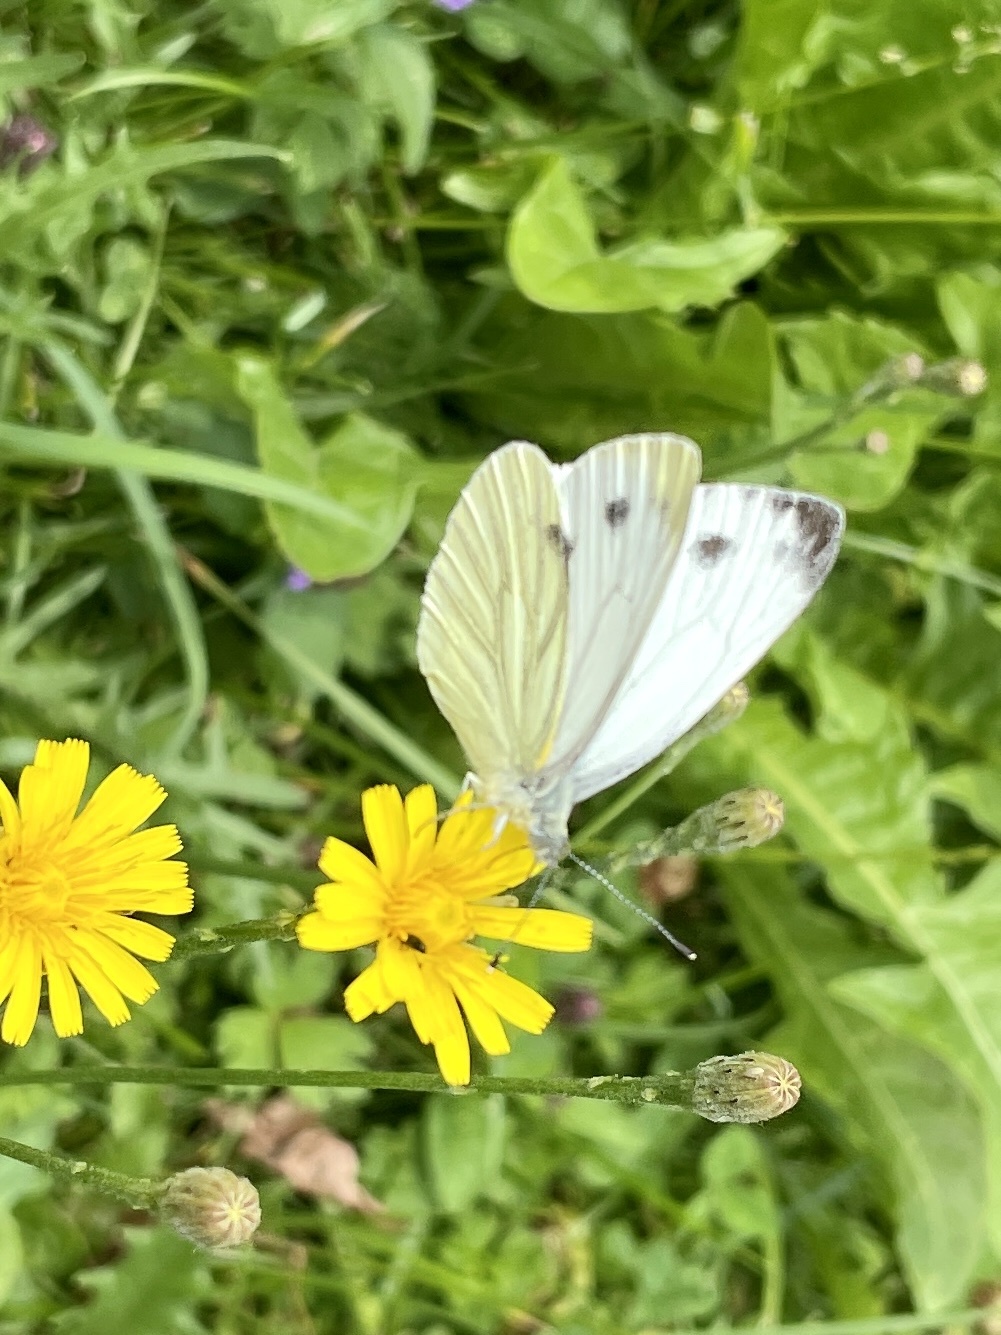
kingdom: Animalia
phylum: Arthropoda
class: Insecta
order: Lepidoptera
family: Pieridae
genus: Pieris
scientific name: Pieris napi
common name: Green-veined white
